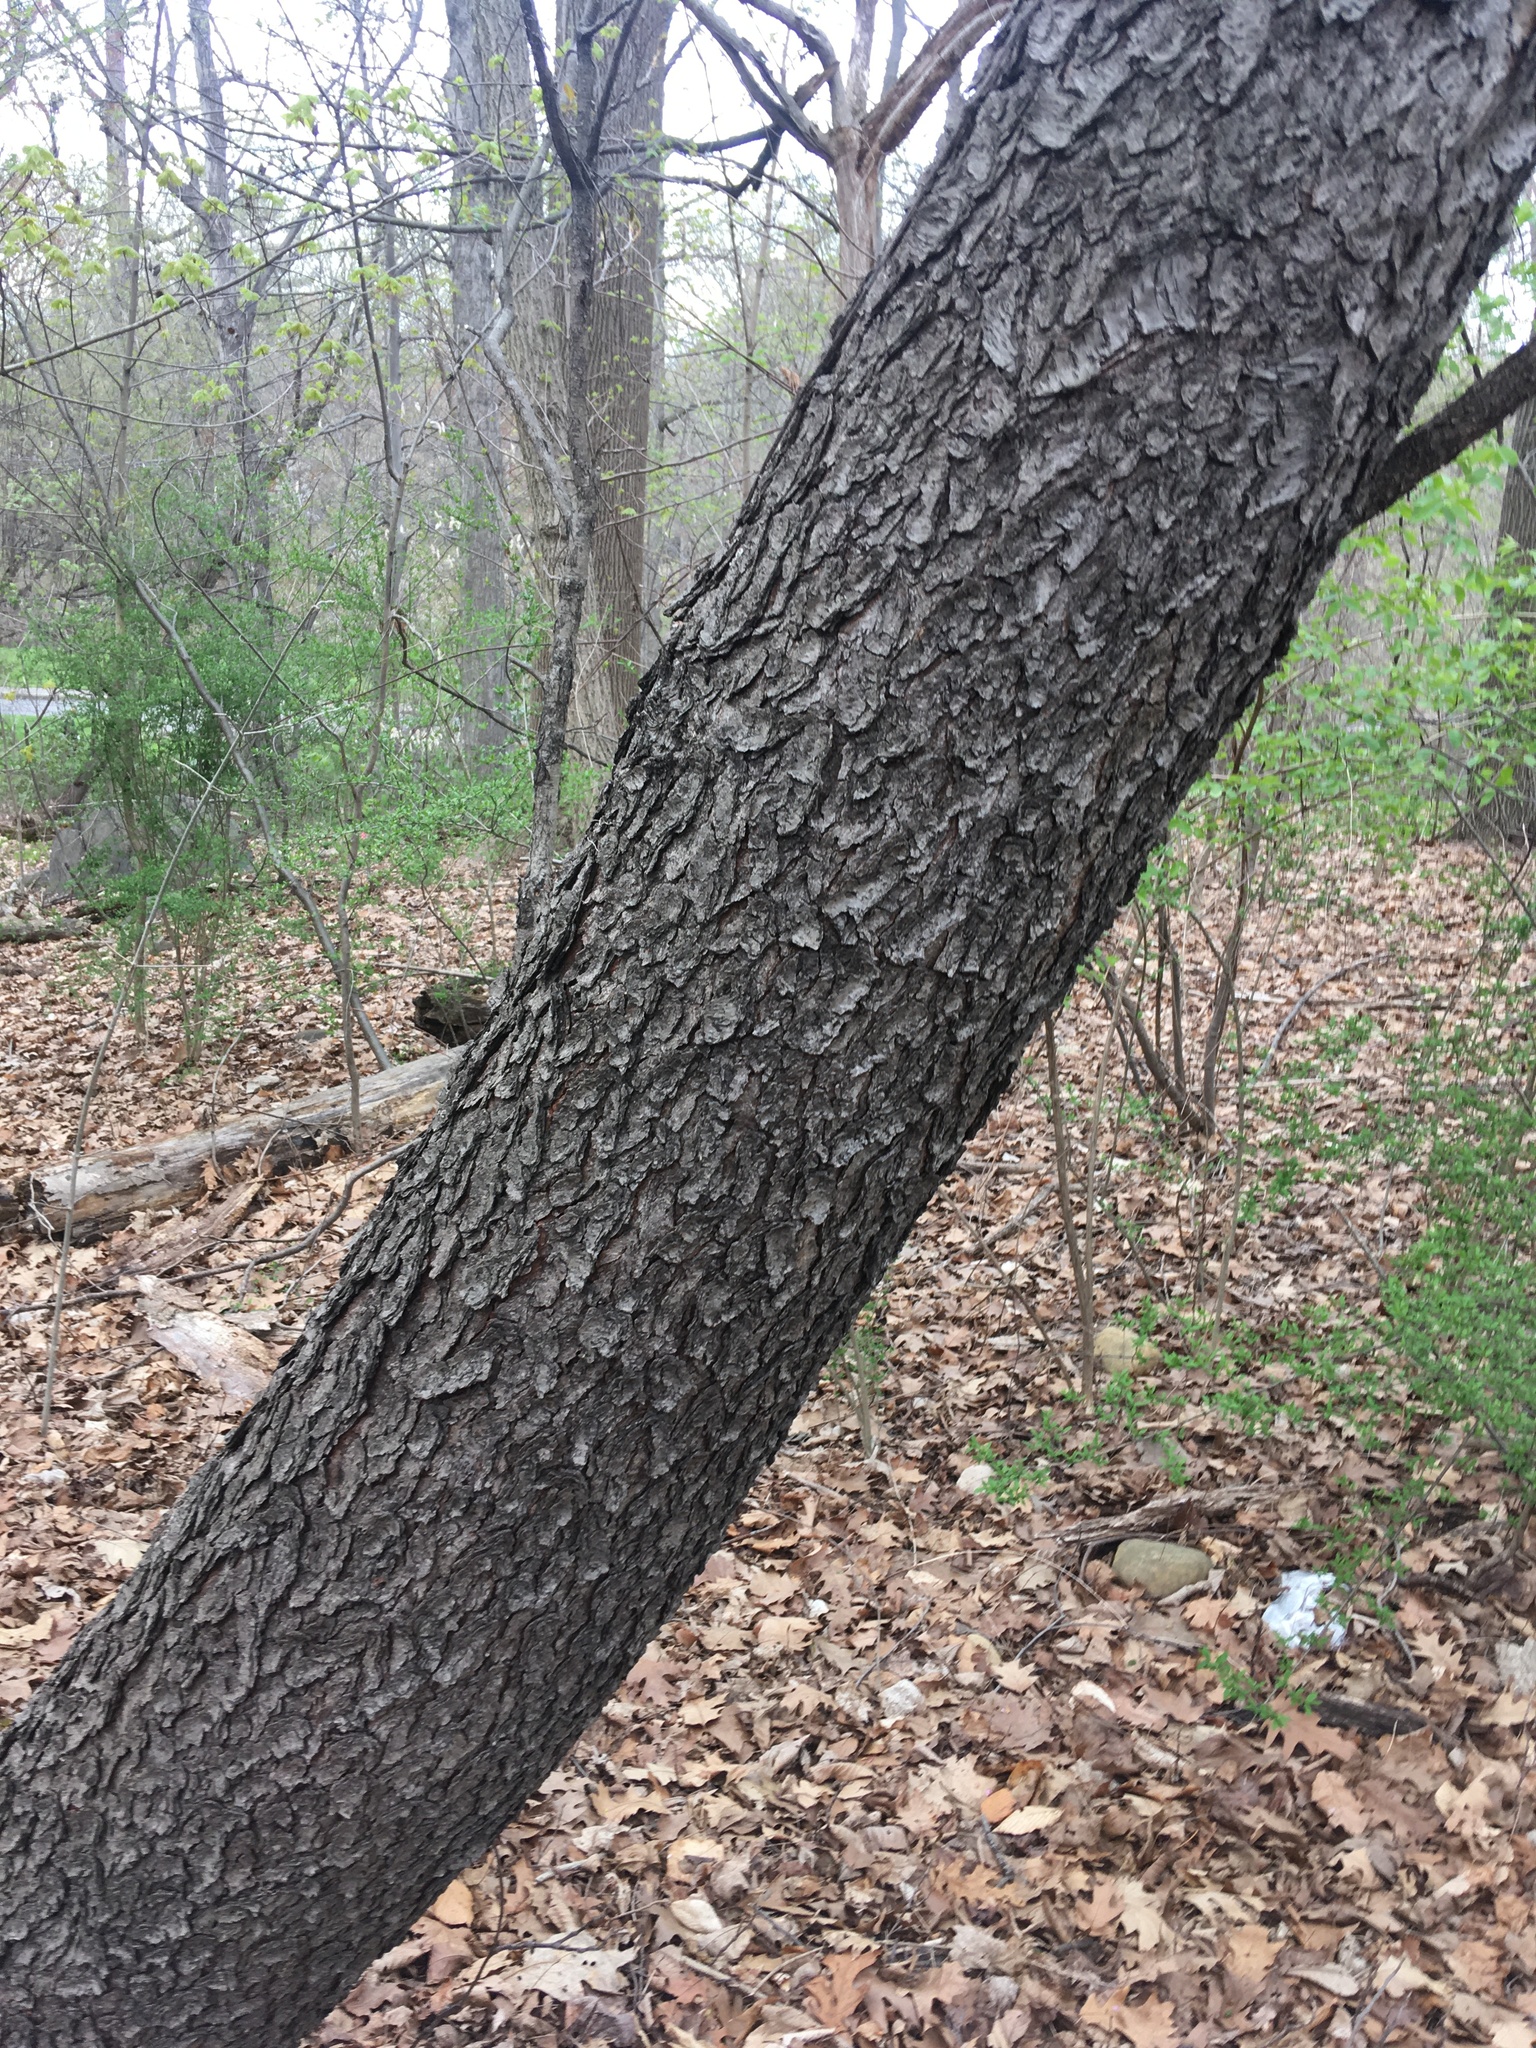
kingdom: Plantae
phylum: Tracheophyta
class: Magnoliopsida
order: Rosales
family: Rosaceae
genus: Prunus
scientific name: Prunus serotina
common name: Black cherry
